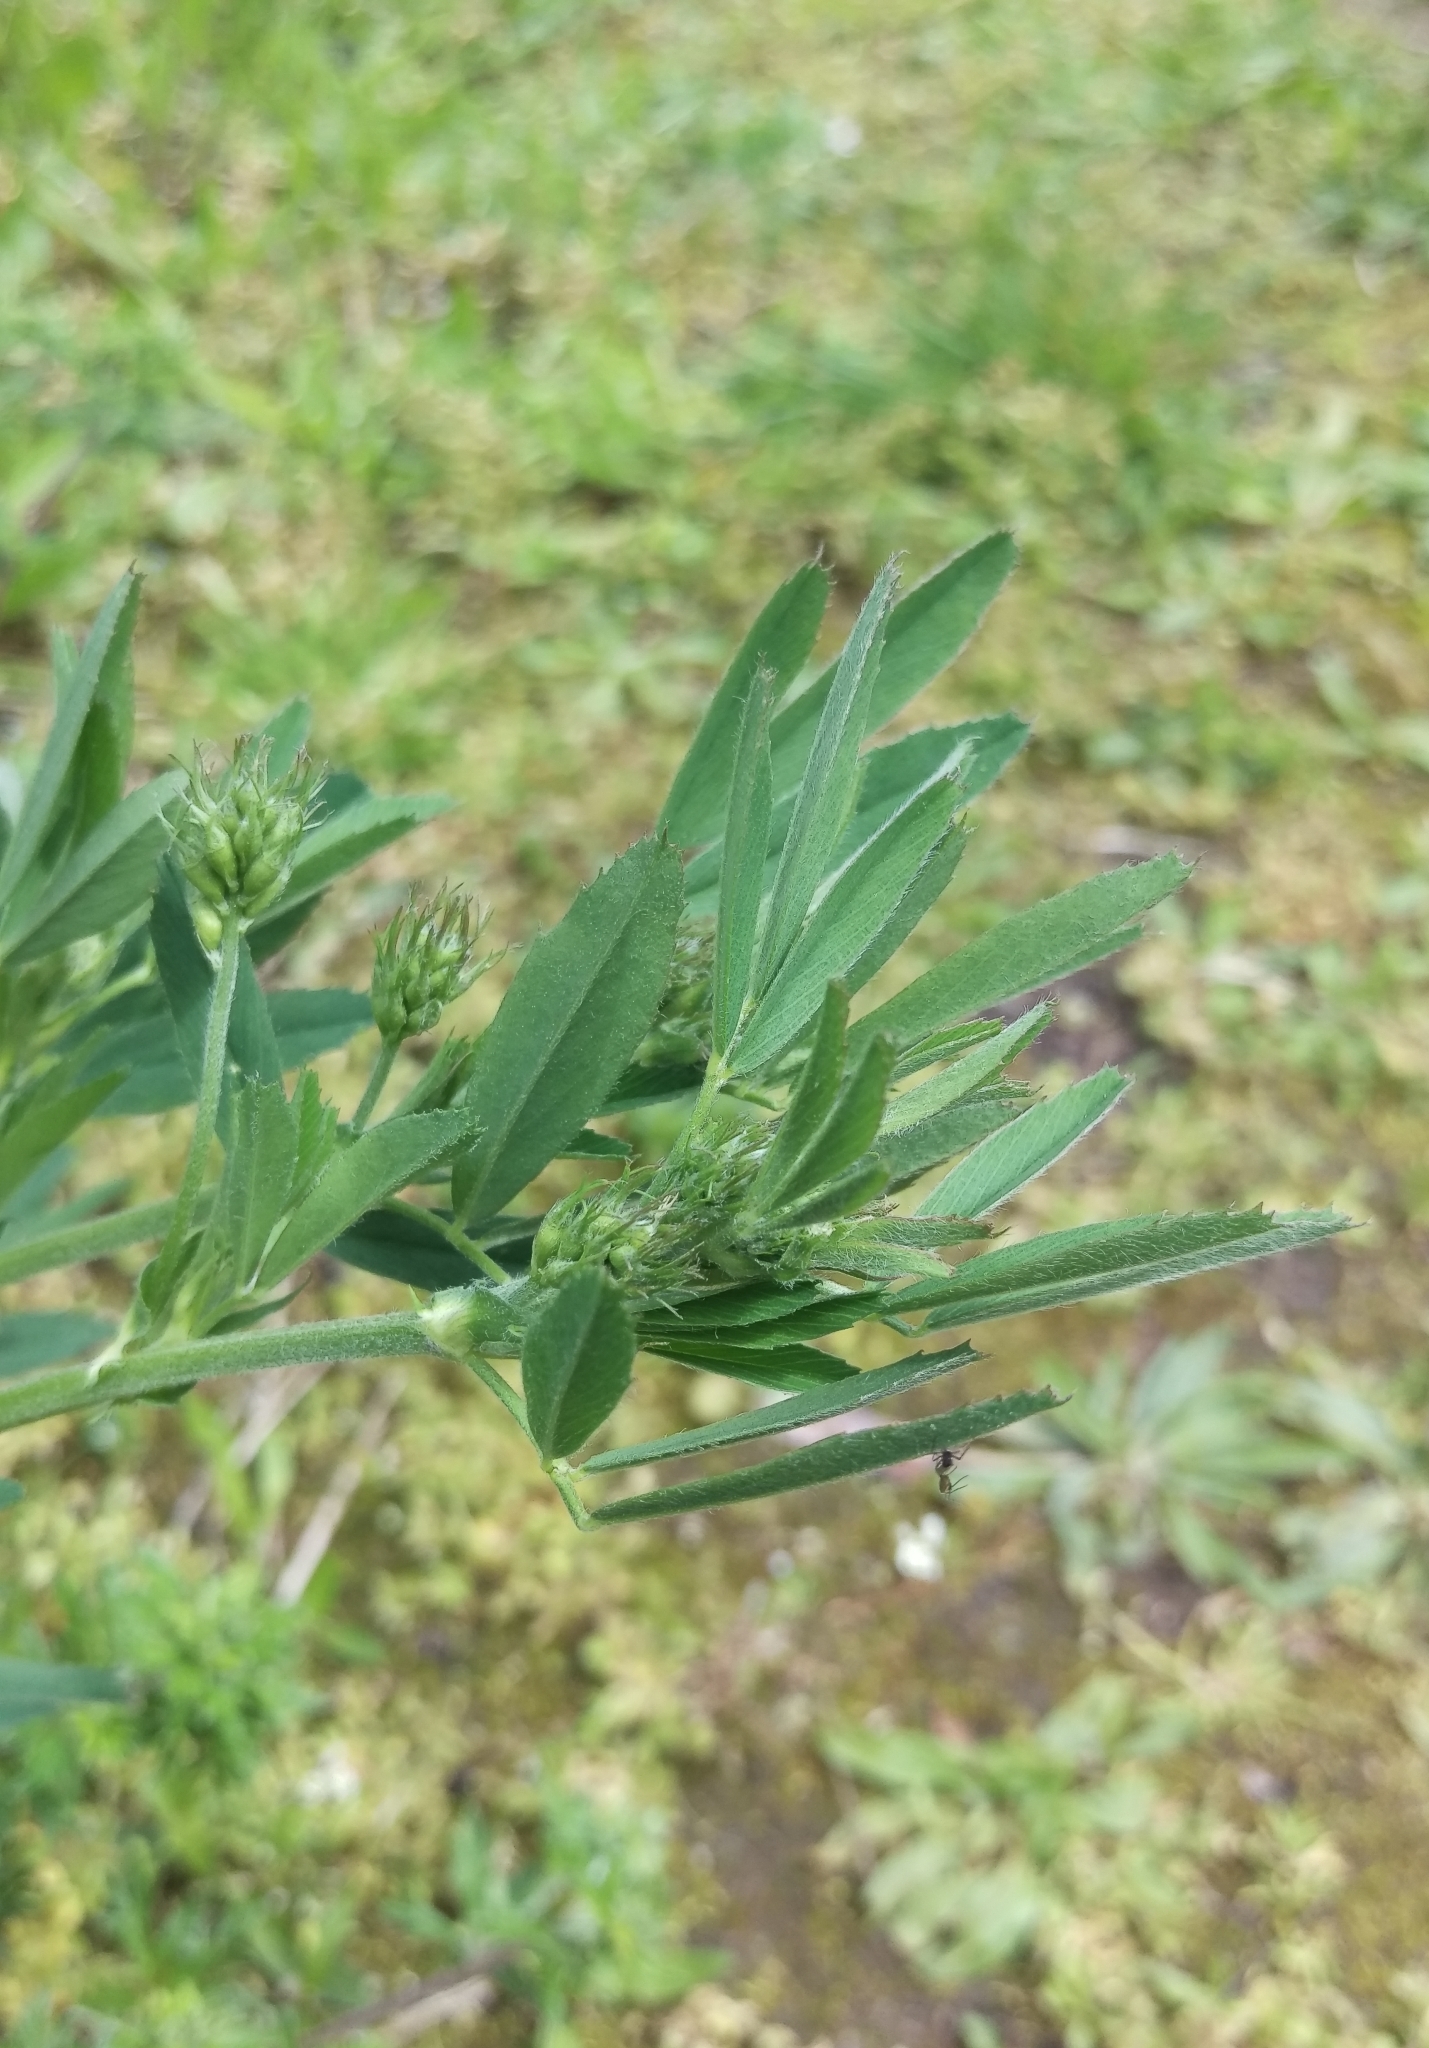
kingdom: Plantae
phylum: Tracheophyta
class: Magnoliopsida
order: Fabales
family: Fabaceae
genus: Medicago
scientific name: Medicago falcata
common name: Sickle medick
